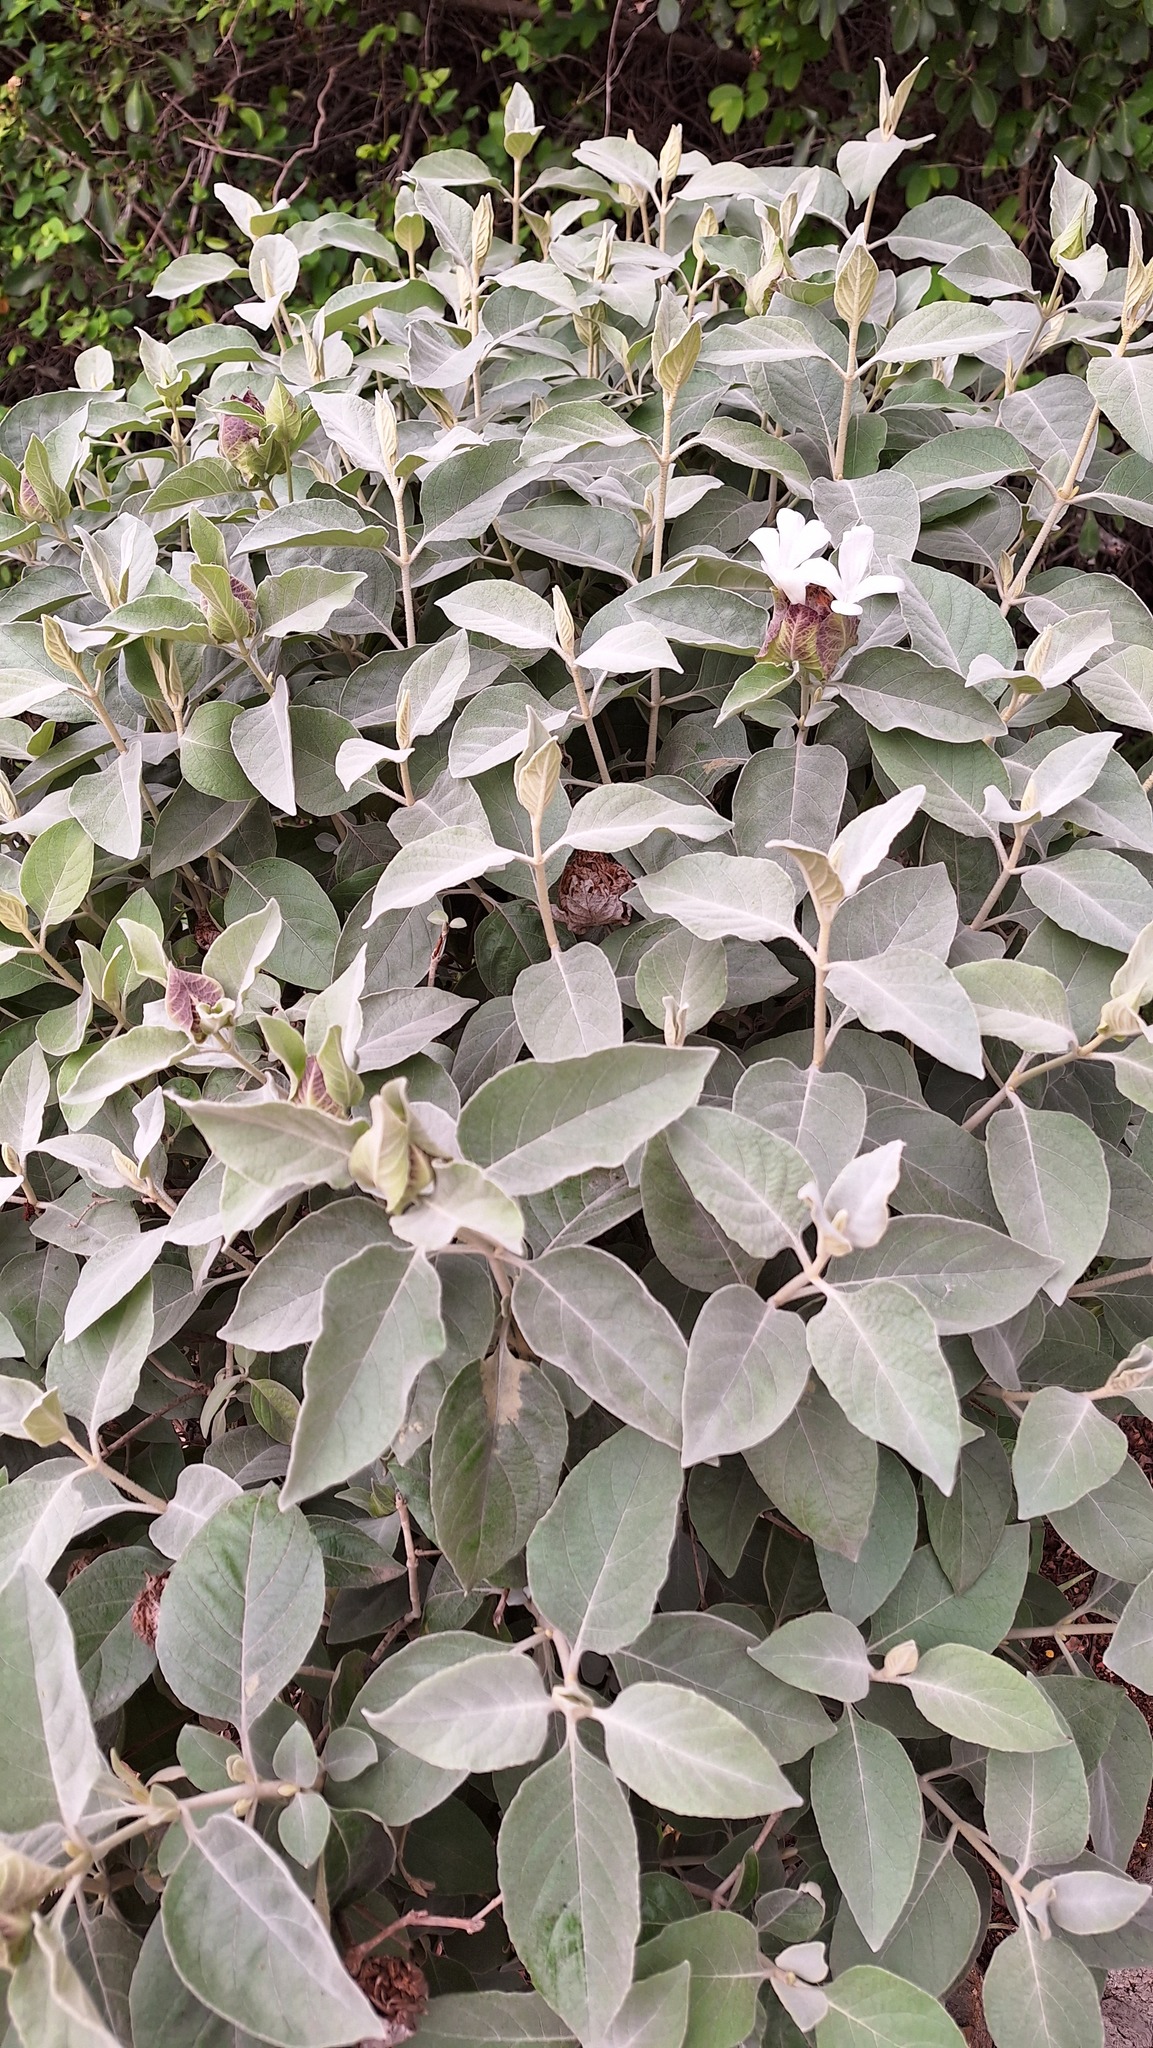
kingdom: Plantae
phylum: Tracheophyta
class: Magnoliopsida
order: Lamiales
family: Acanthaceae
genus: Barleria
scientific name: Barleria albostellata
